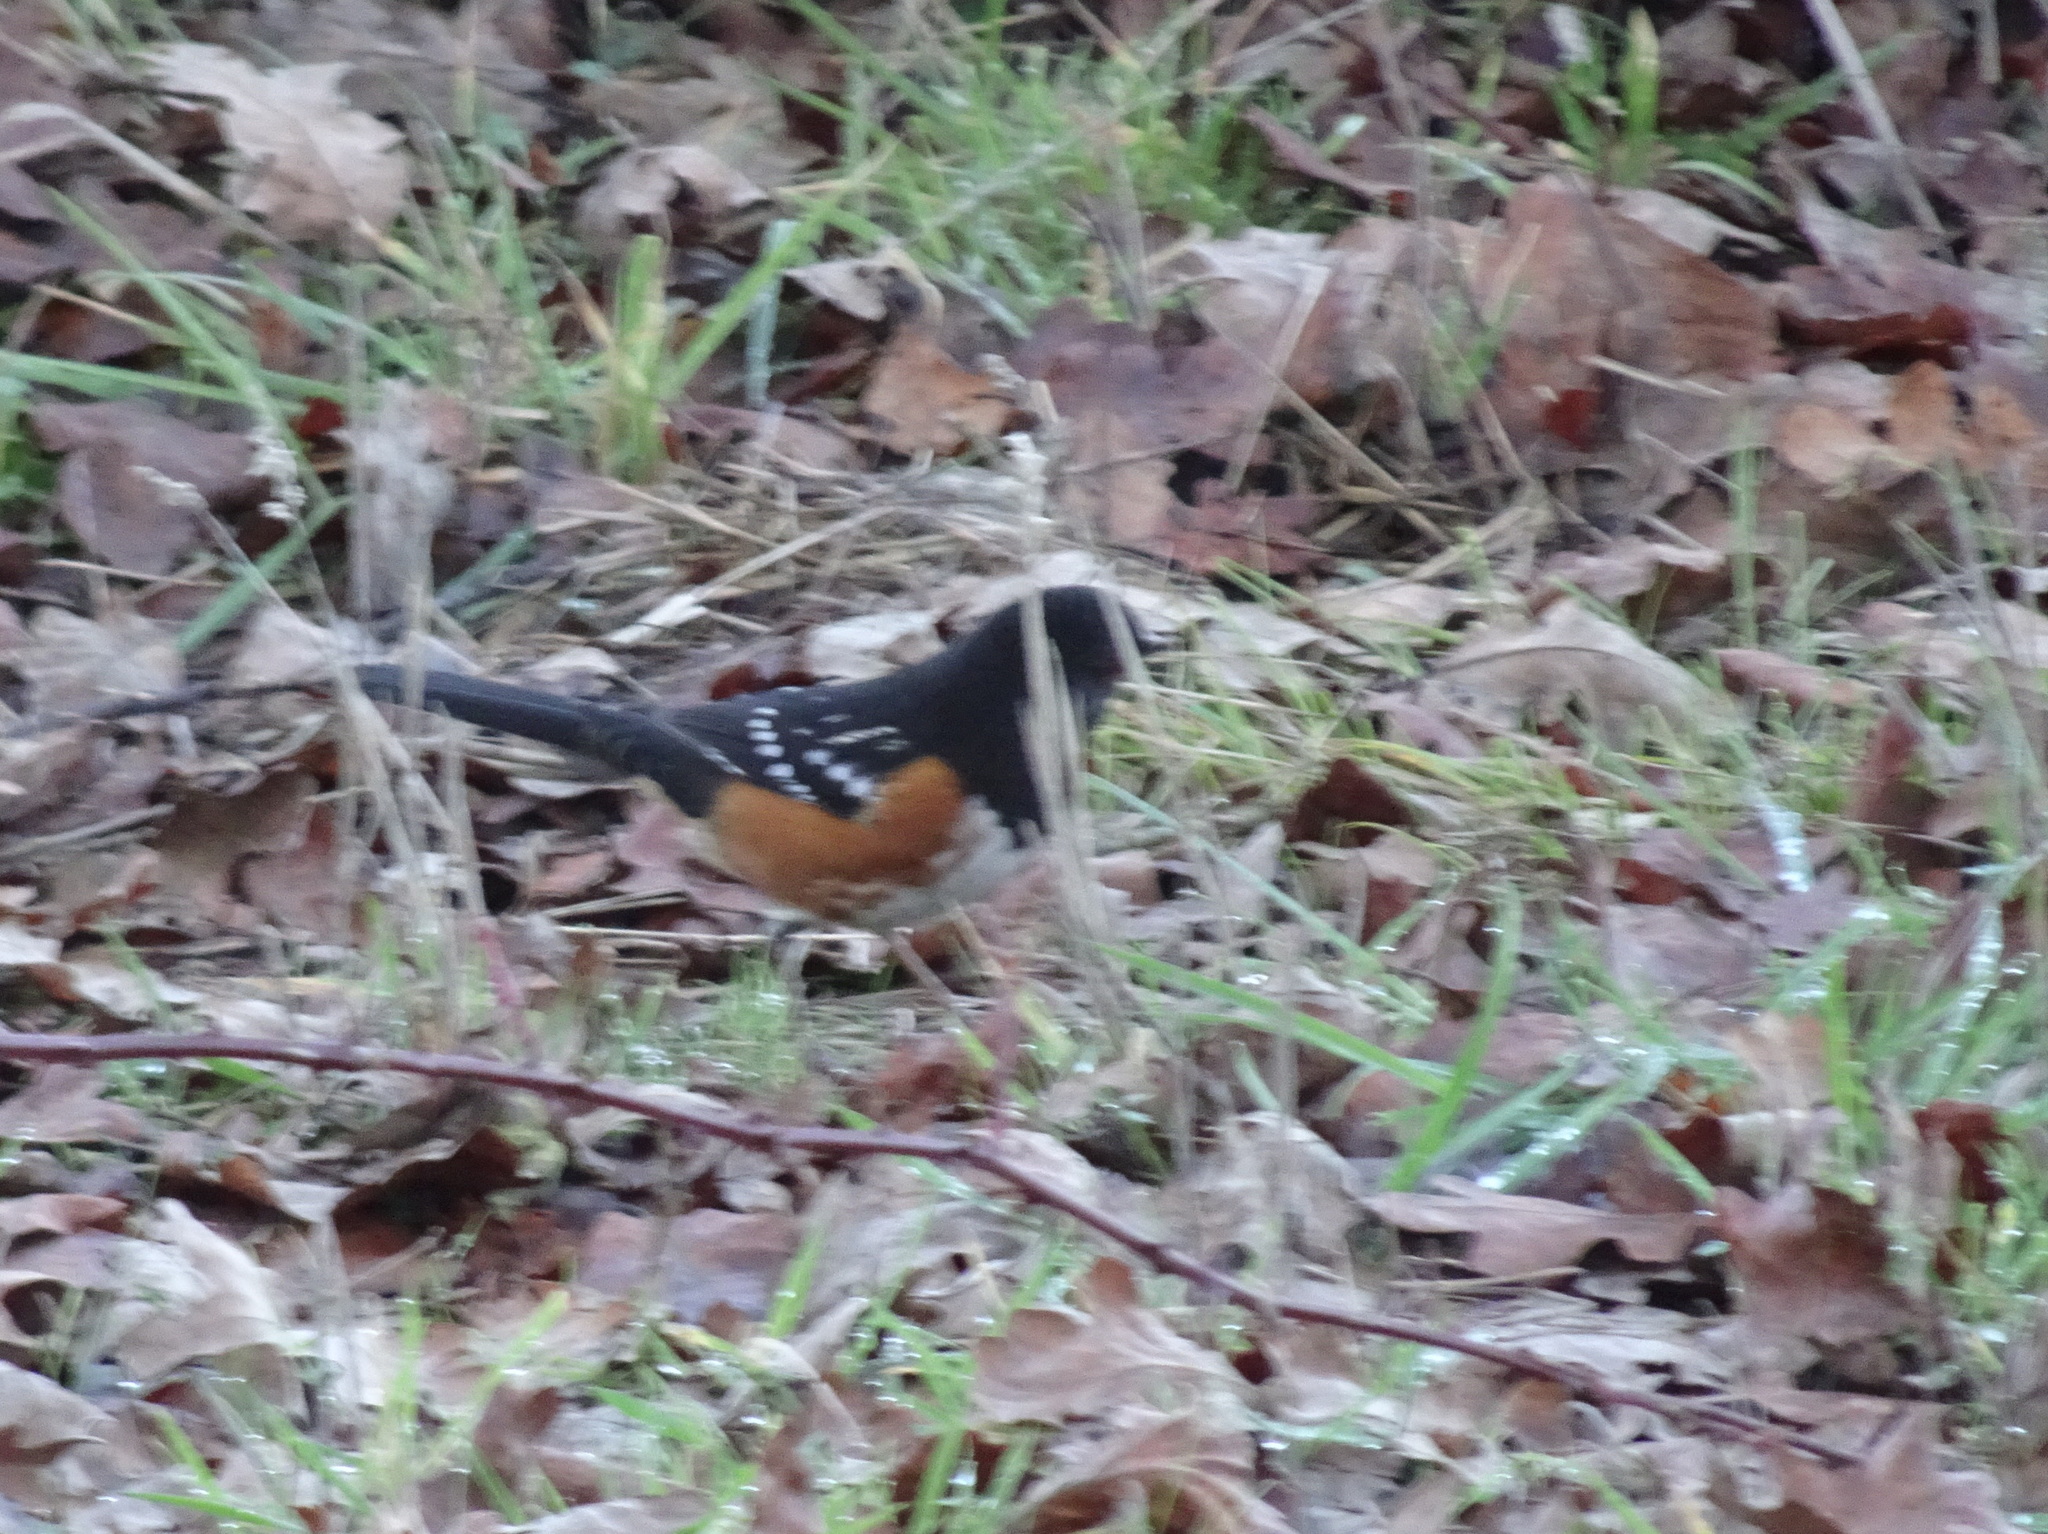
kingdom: Animalia
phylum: Chordata
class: Aves
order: Passeriformes
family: Passerellidae
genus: Pipilo
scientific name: Pipilo maculatus
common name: Spotted towhee
